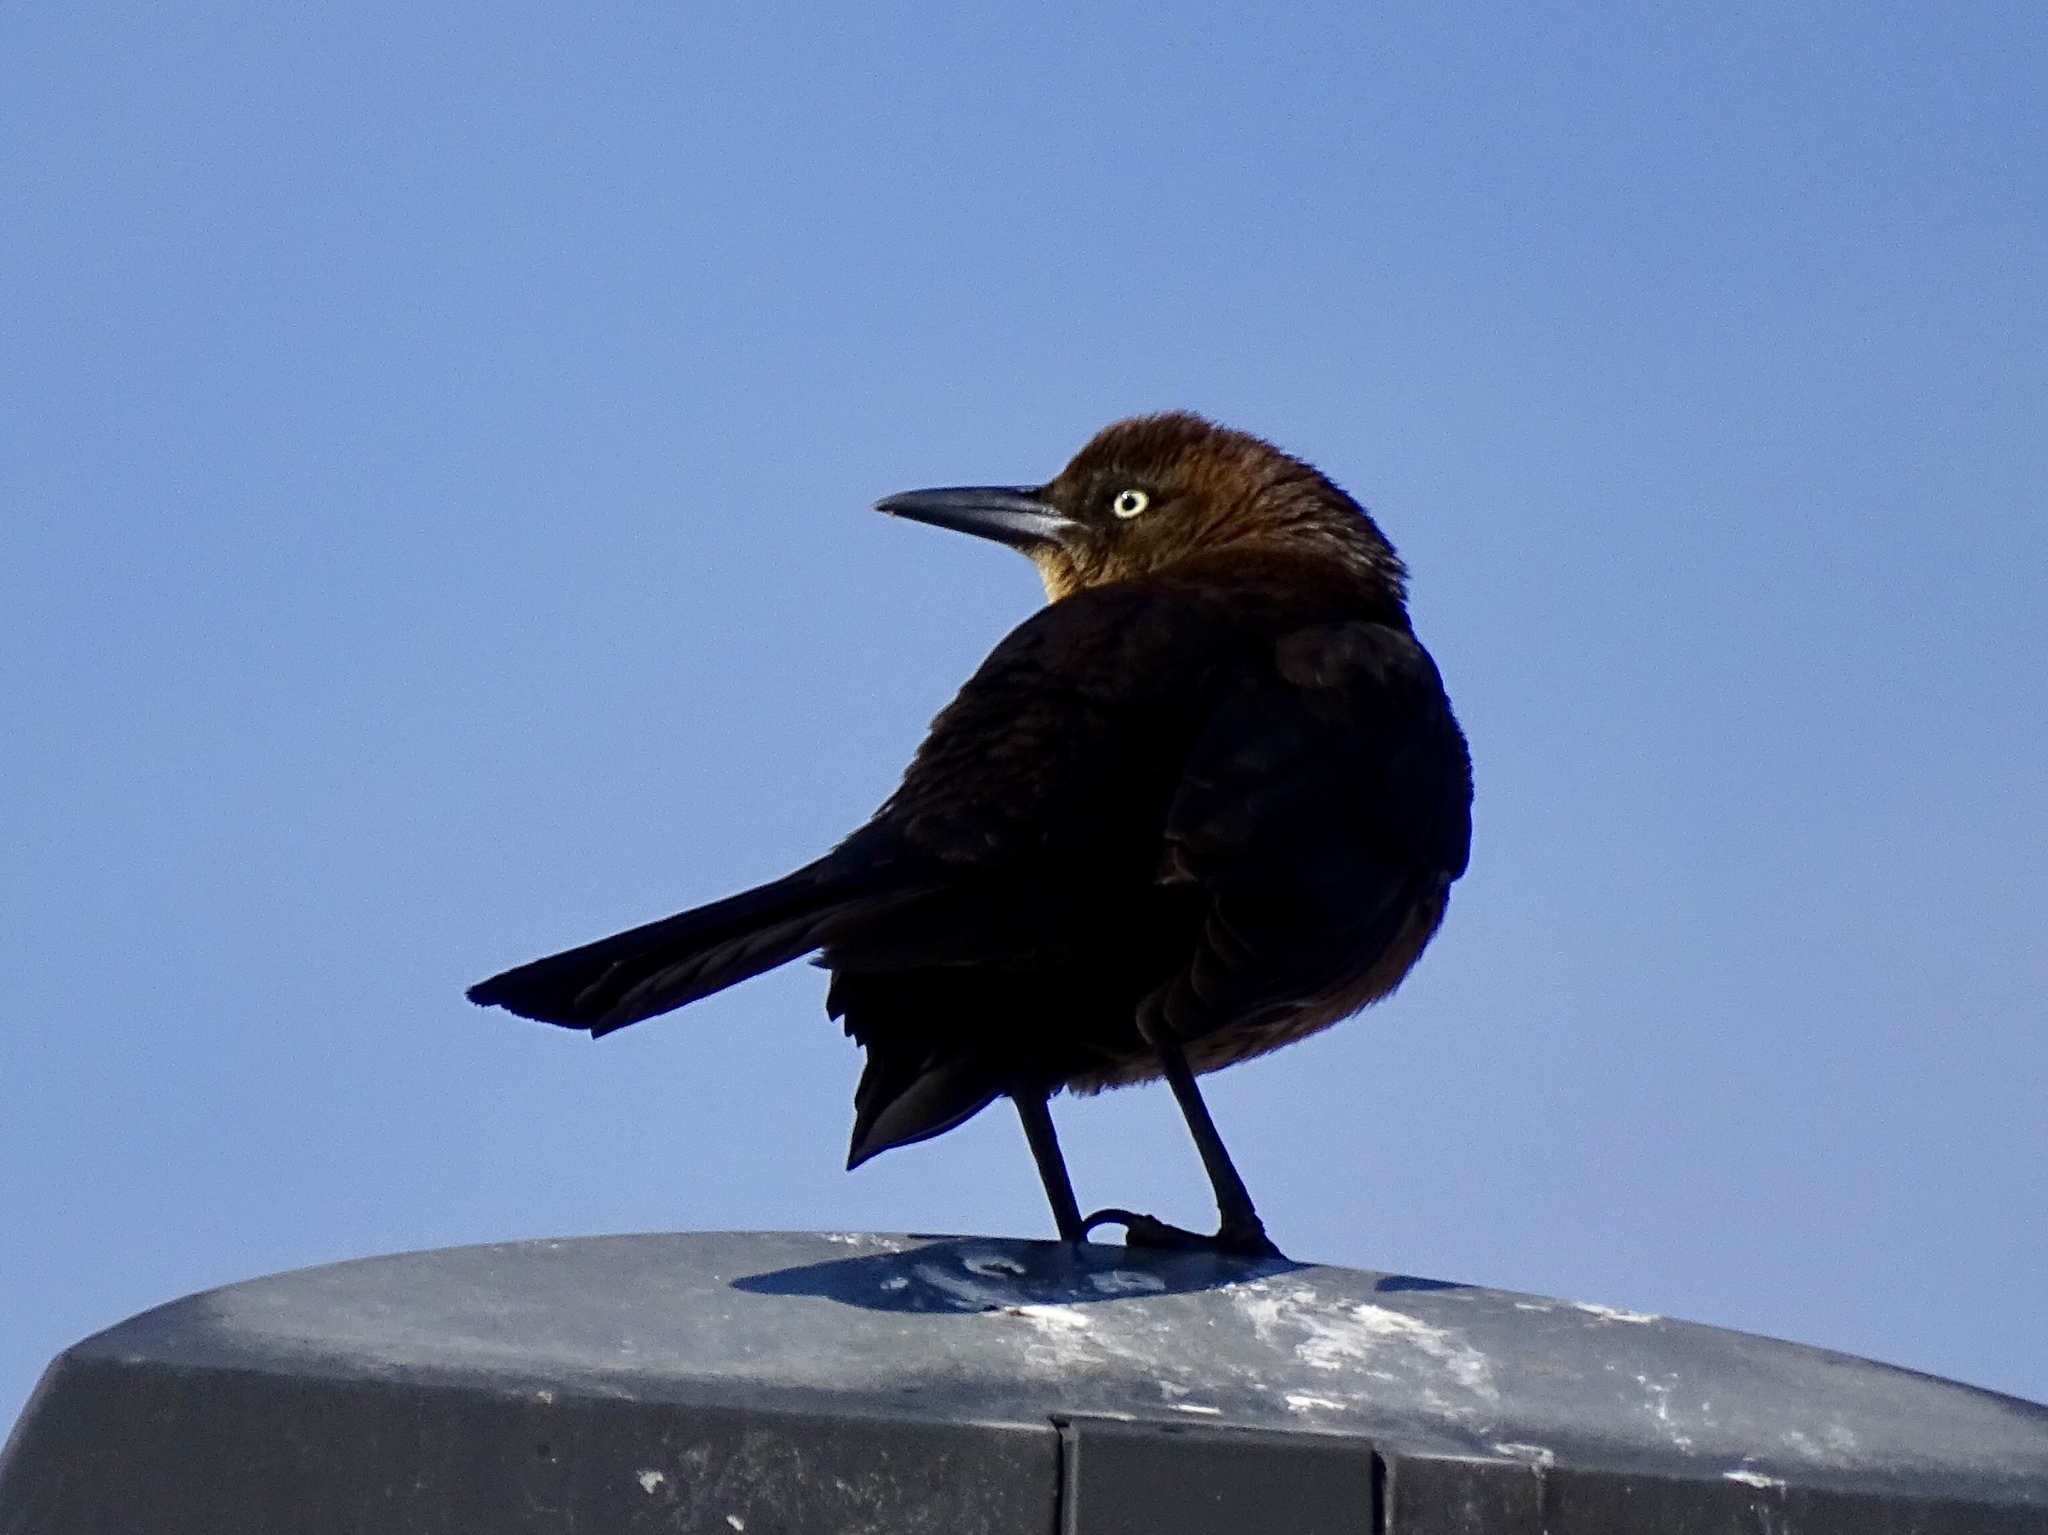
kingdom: Animalia
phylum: Chordata
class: Aves
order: Passeriformes
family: Icteridae
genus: Quiscalus
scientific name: Quiscalus mexicanus
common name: Great-tailed grackle
